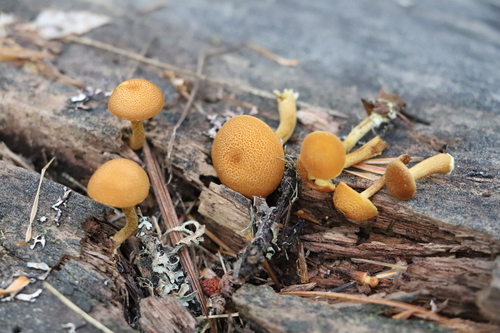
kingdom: Fungi
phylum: Basidiomycota
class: Agaricomycetes
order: Agaricales
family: Tubariaceae
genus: Flammulaster
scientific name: Flammulaster limulatus
